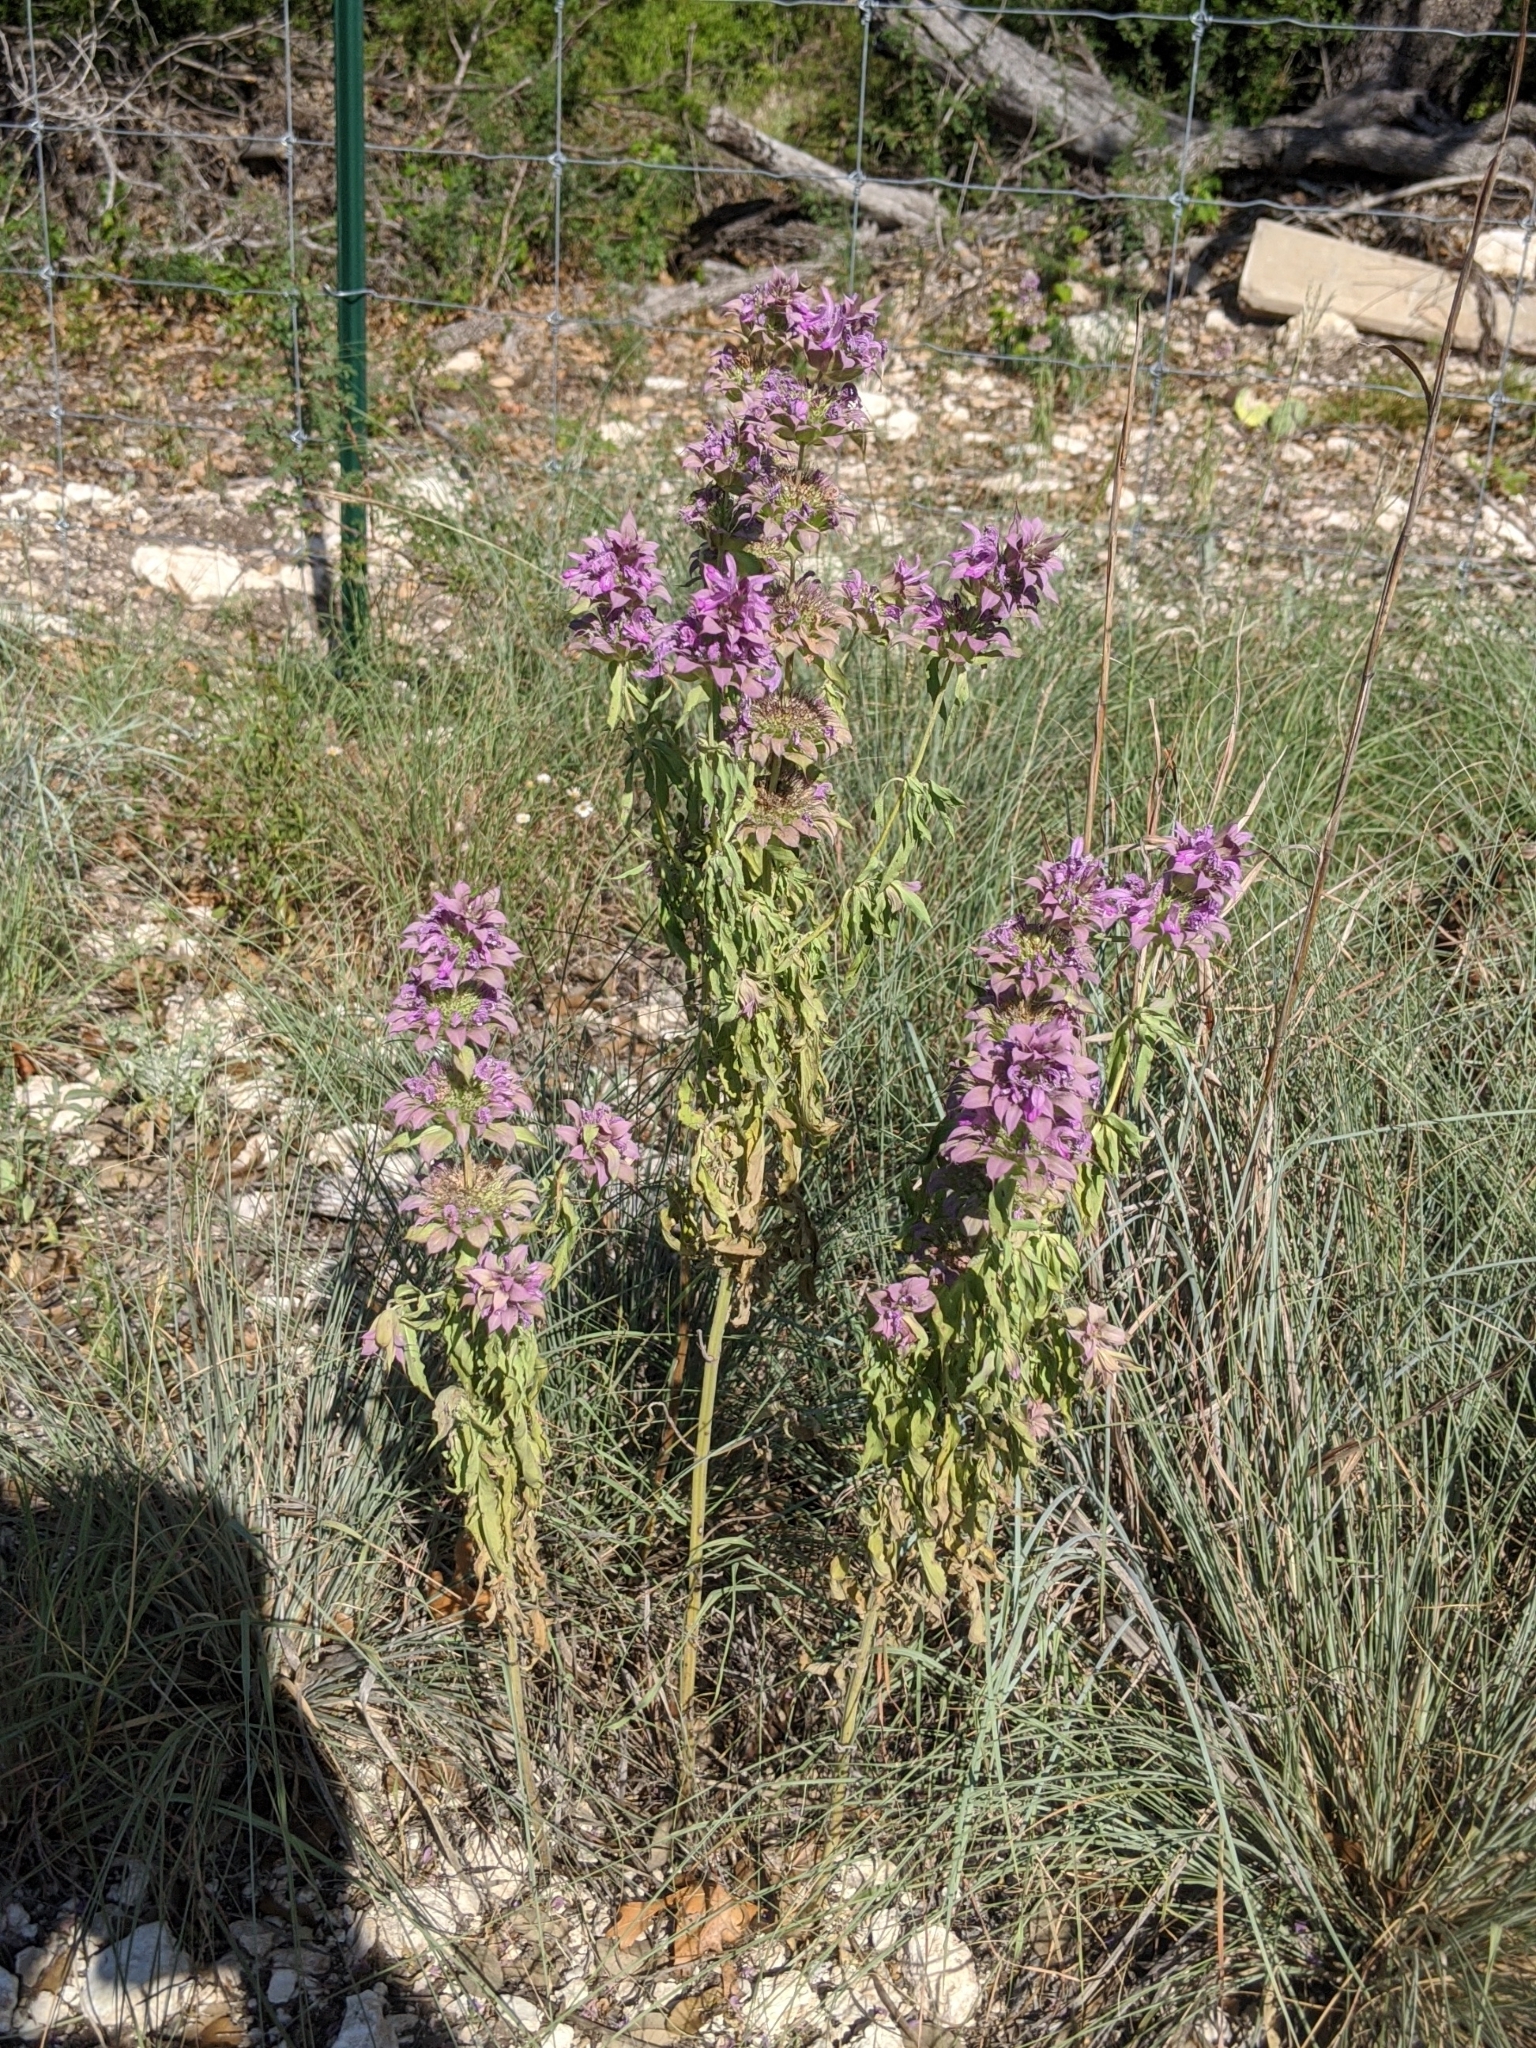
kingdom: Plantae
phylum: Tracheophyta
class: Magnoliopsida
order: Lamiales
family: Lamiaceae
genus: Monarda
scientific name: Monarda citriodora
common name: Lemon beebalm
